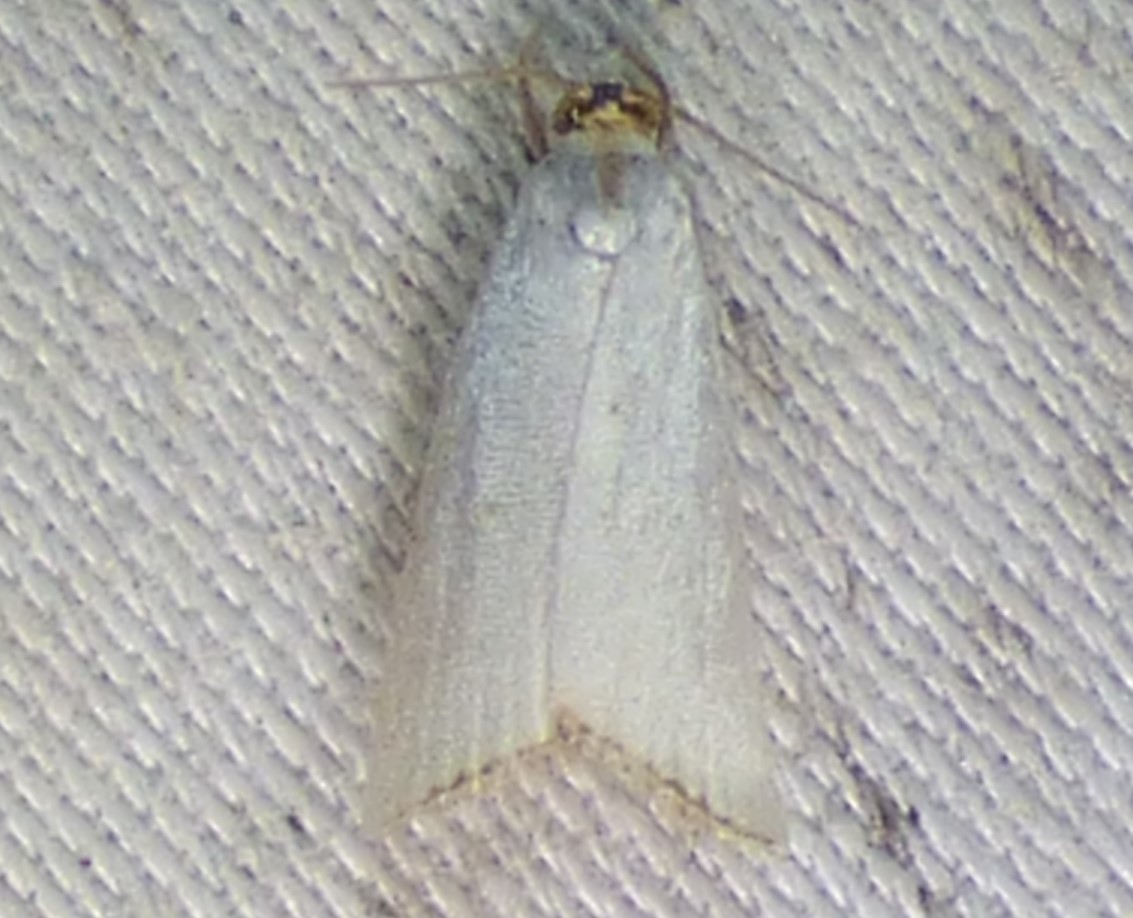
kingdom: Animalia
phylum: Arthropoda
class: Insecta
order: Lepidoptera
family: Crambidae
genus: Argyria
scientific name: Argyria nivalis
